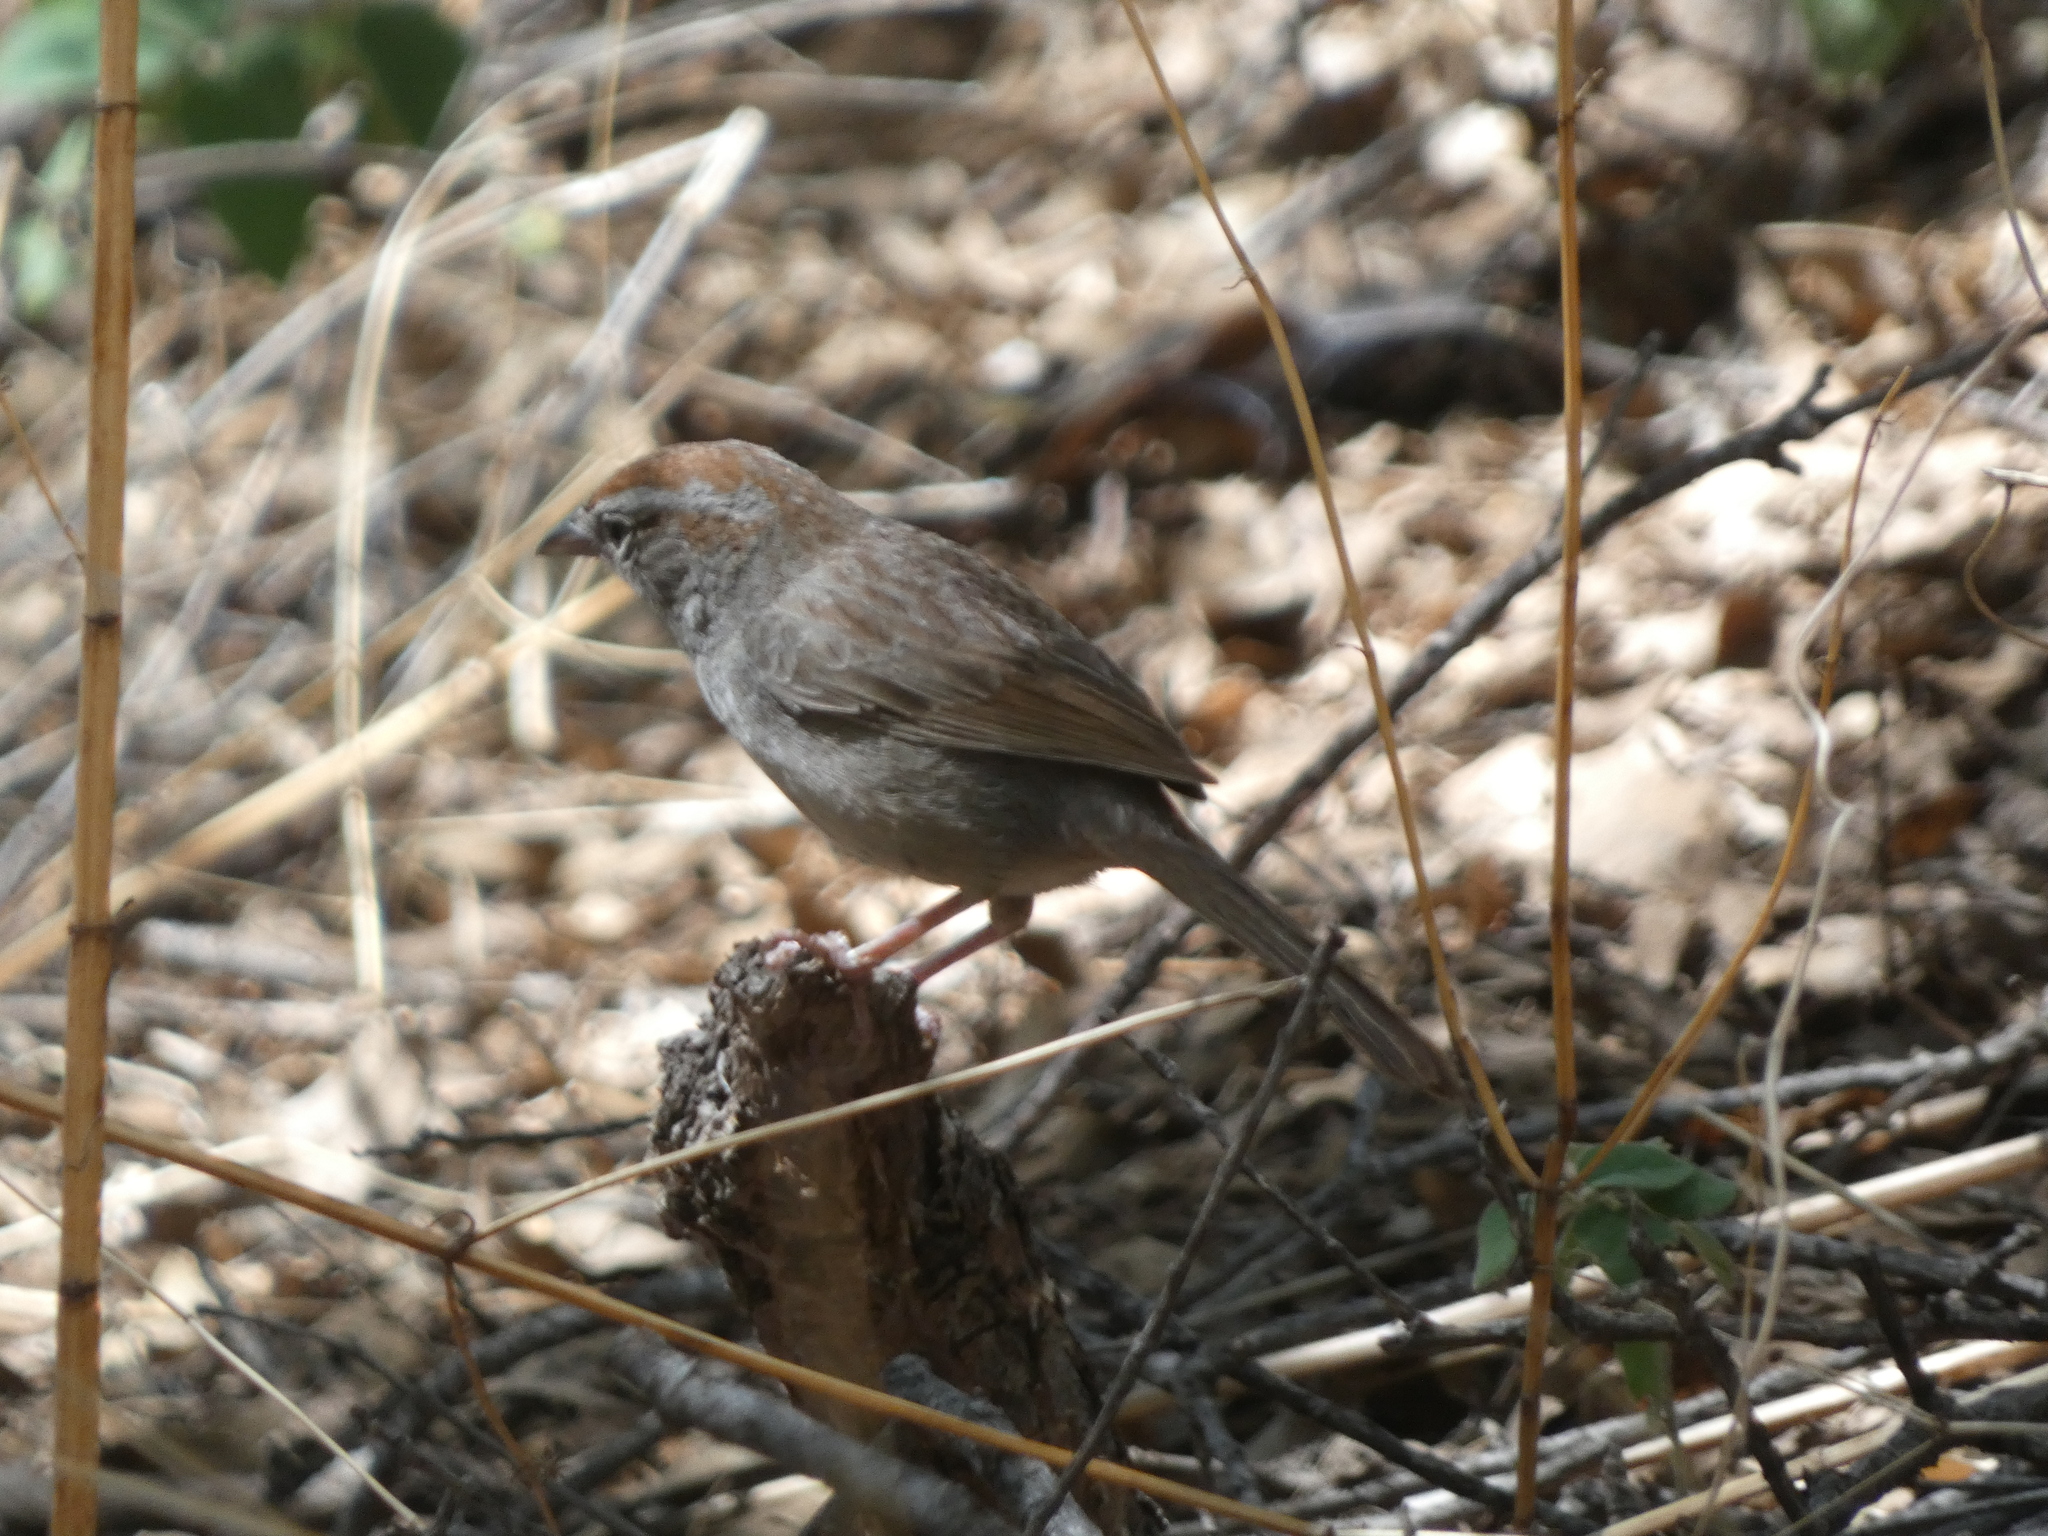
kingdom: Animalia
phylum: Chordata
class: Aves
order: Passeriformes
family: Passerellidae
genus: Aimophila
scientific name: Aimophila ruficeps
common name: Rufous-crowned sparrow
